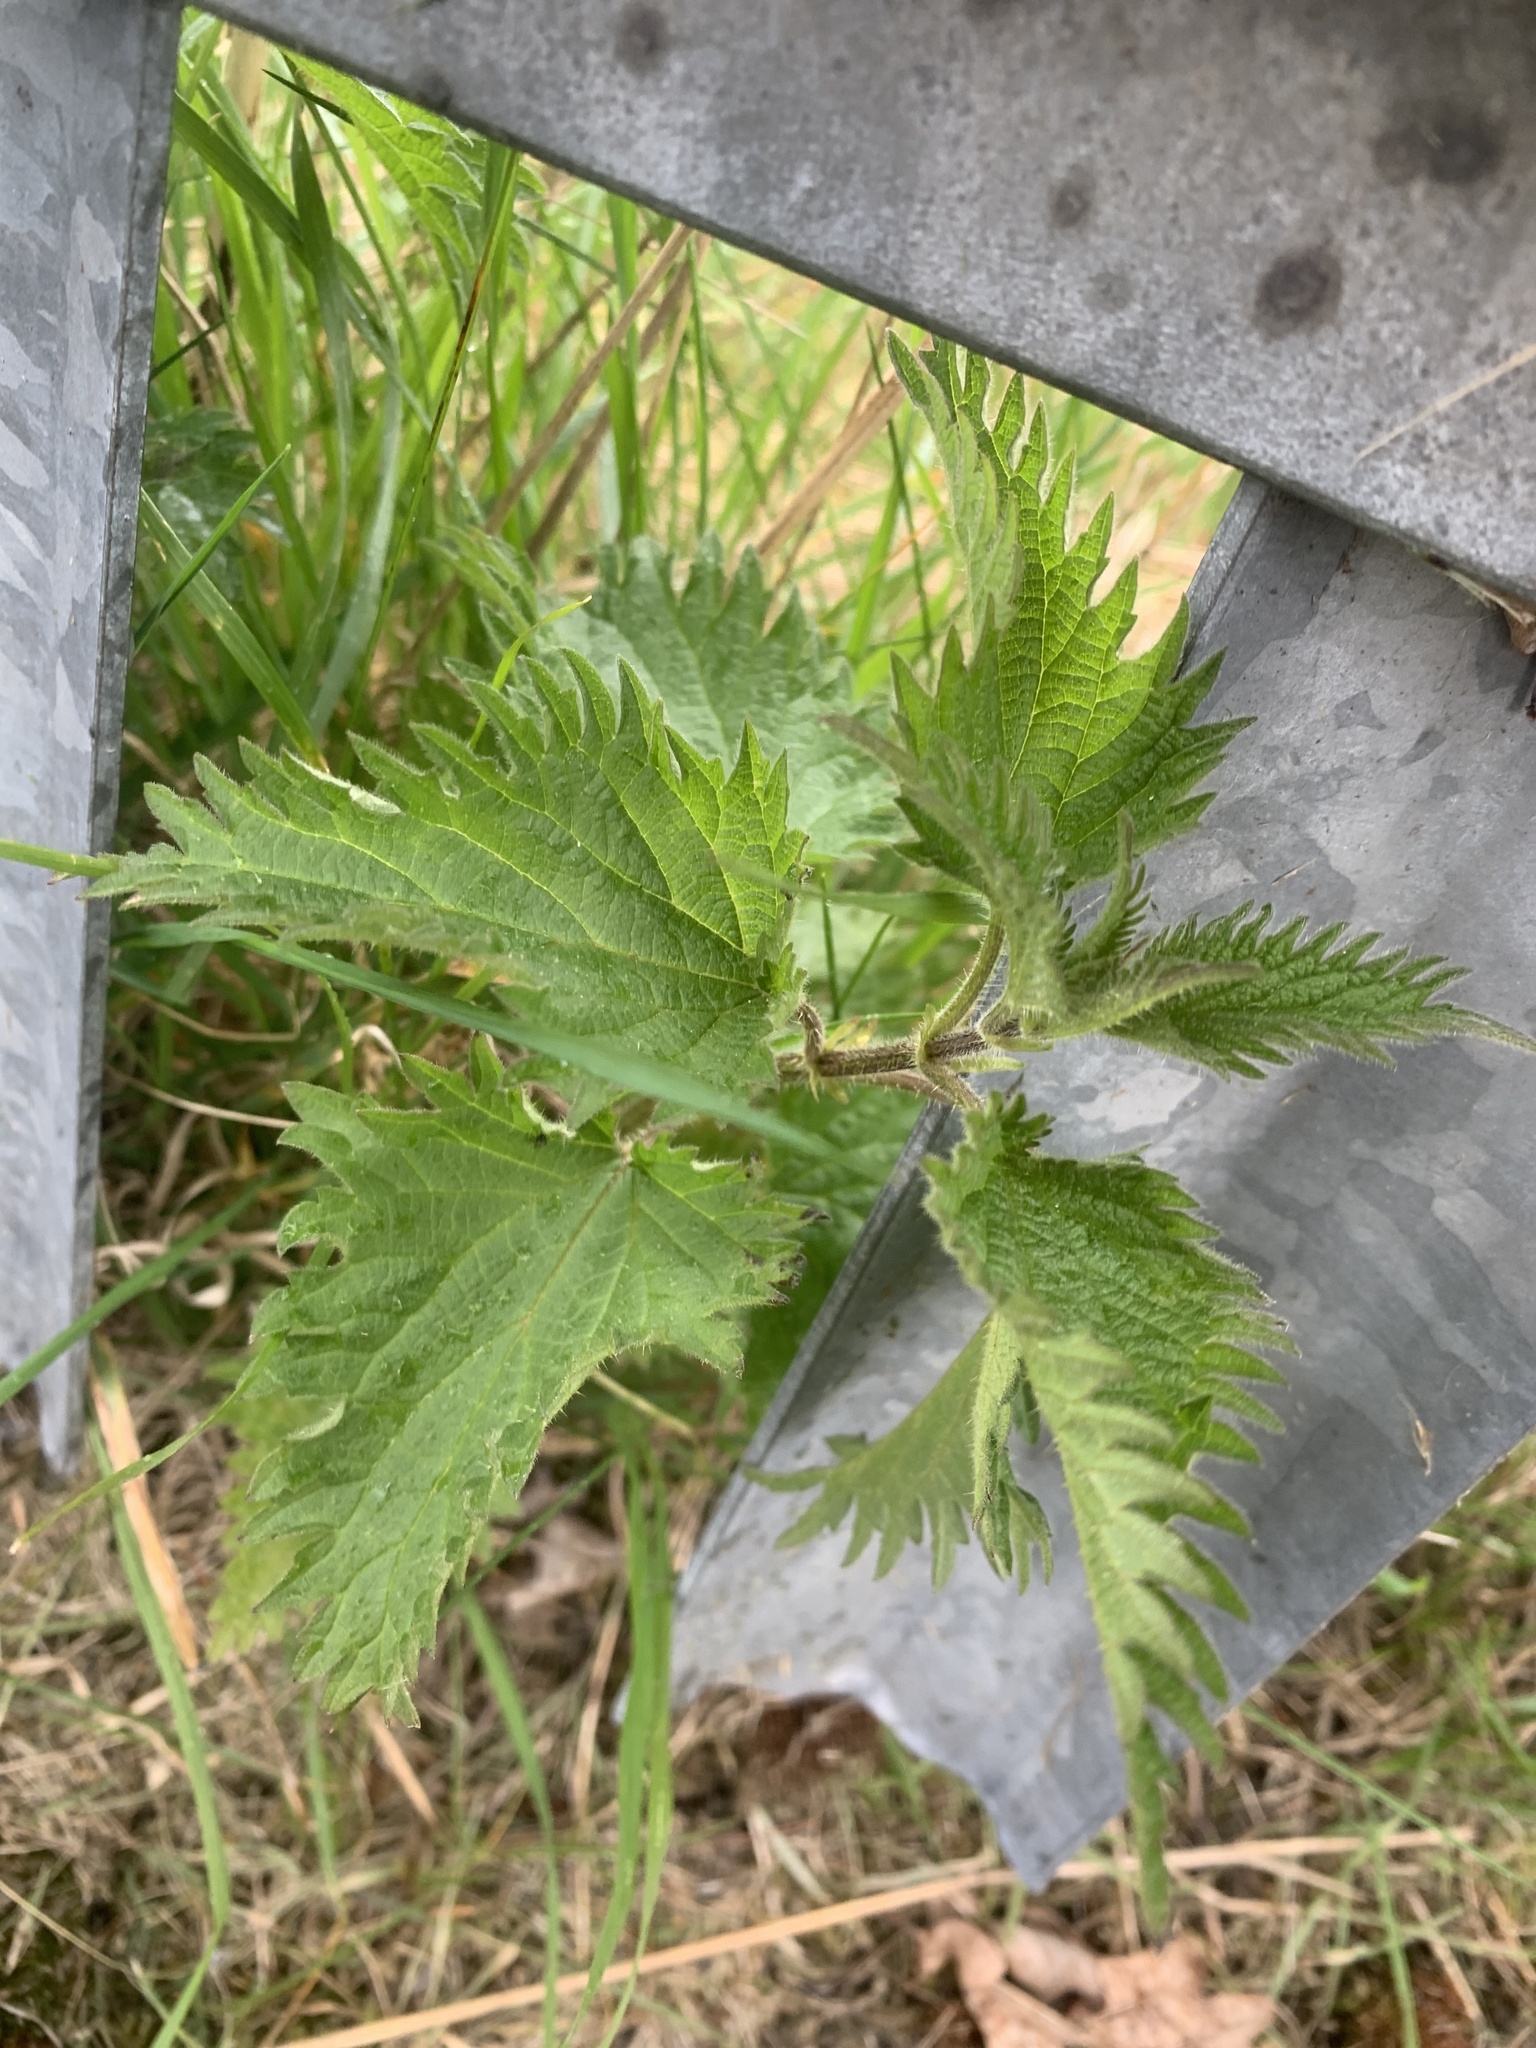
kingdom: Plantae
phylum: Tracheophyta
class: Magnoliopsida
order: Rosales
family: Urticaceae
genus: Urtica
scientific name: Urtica dioica
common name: Common nettle
